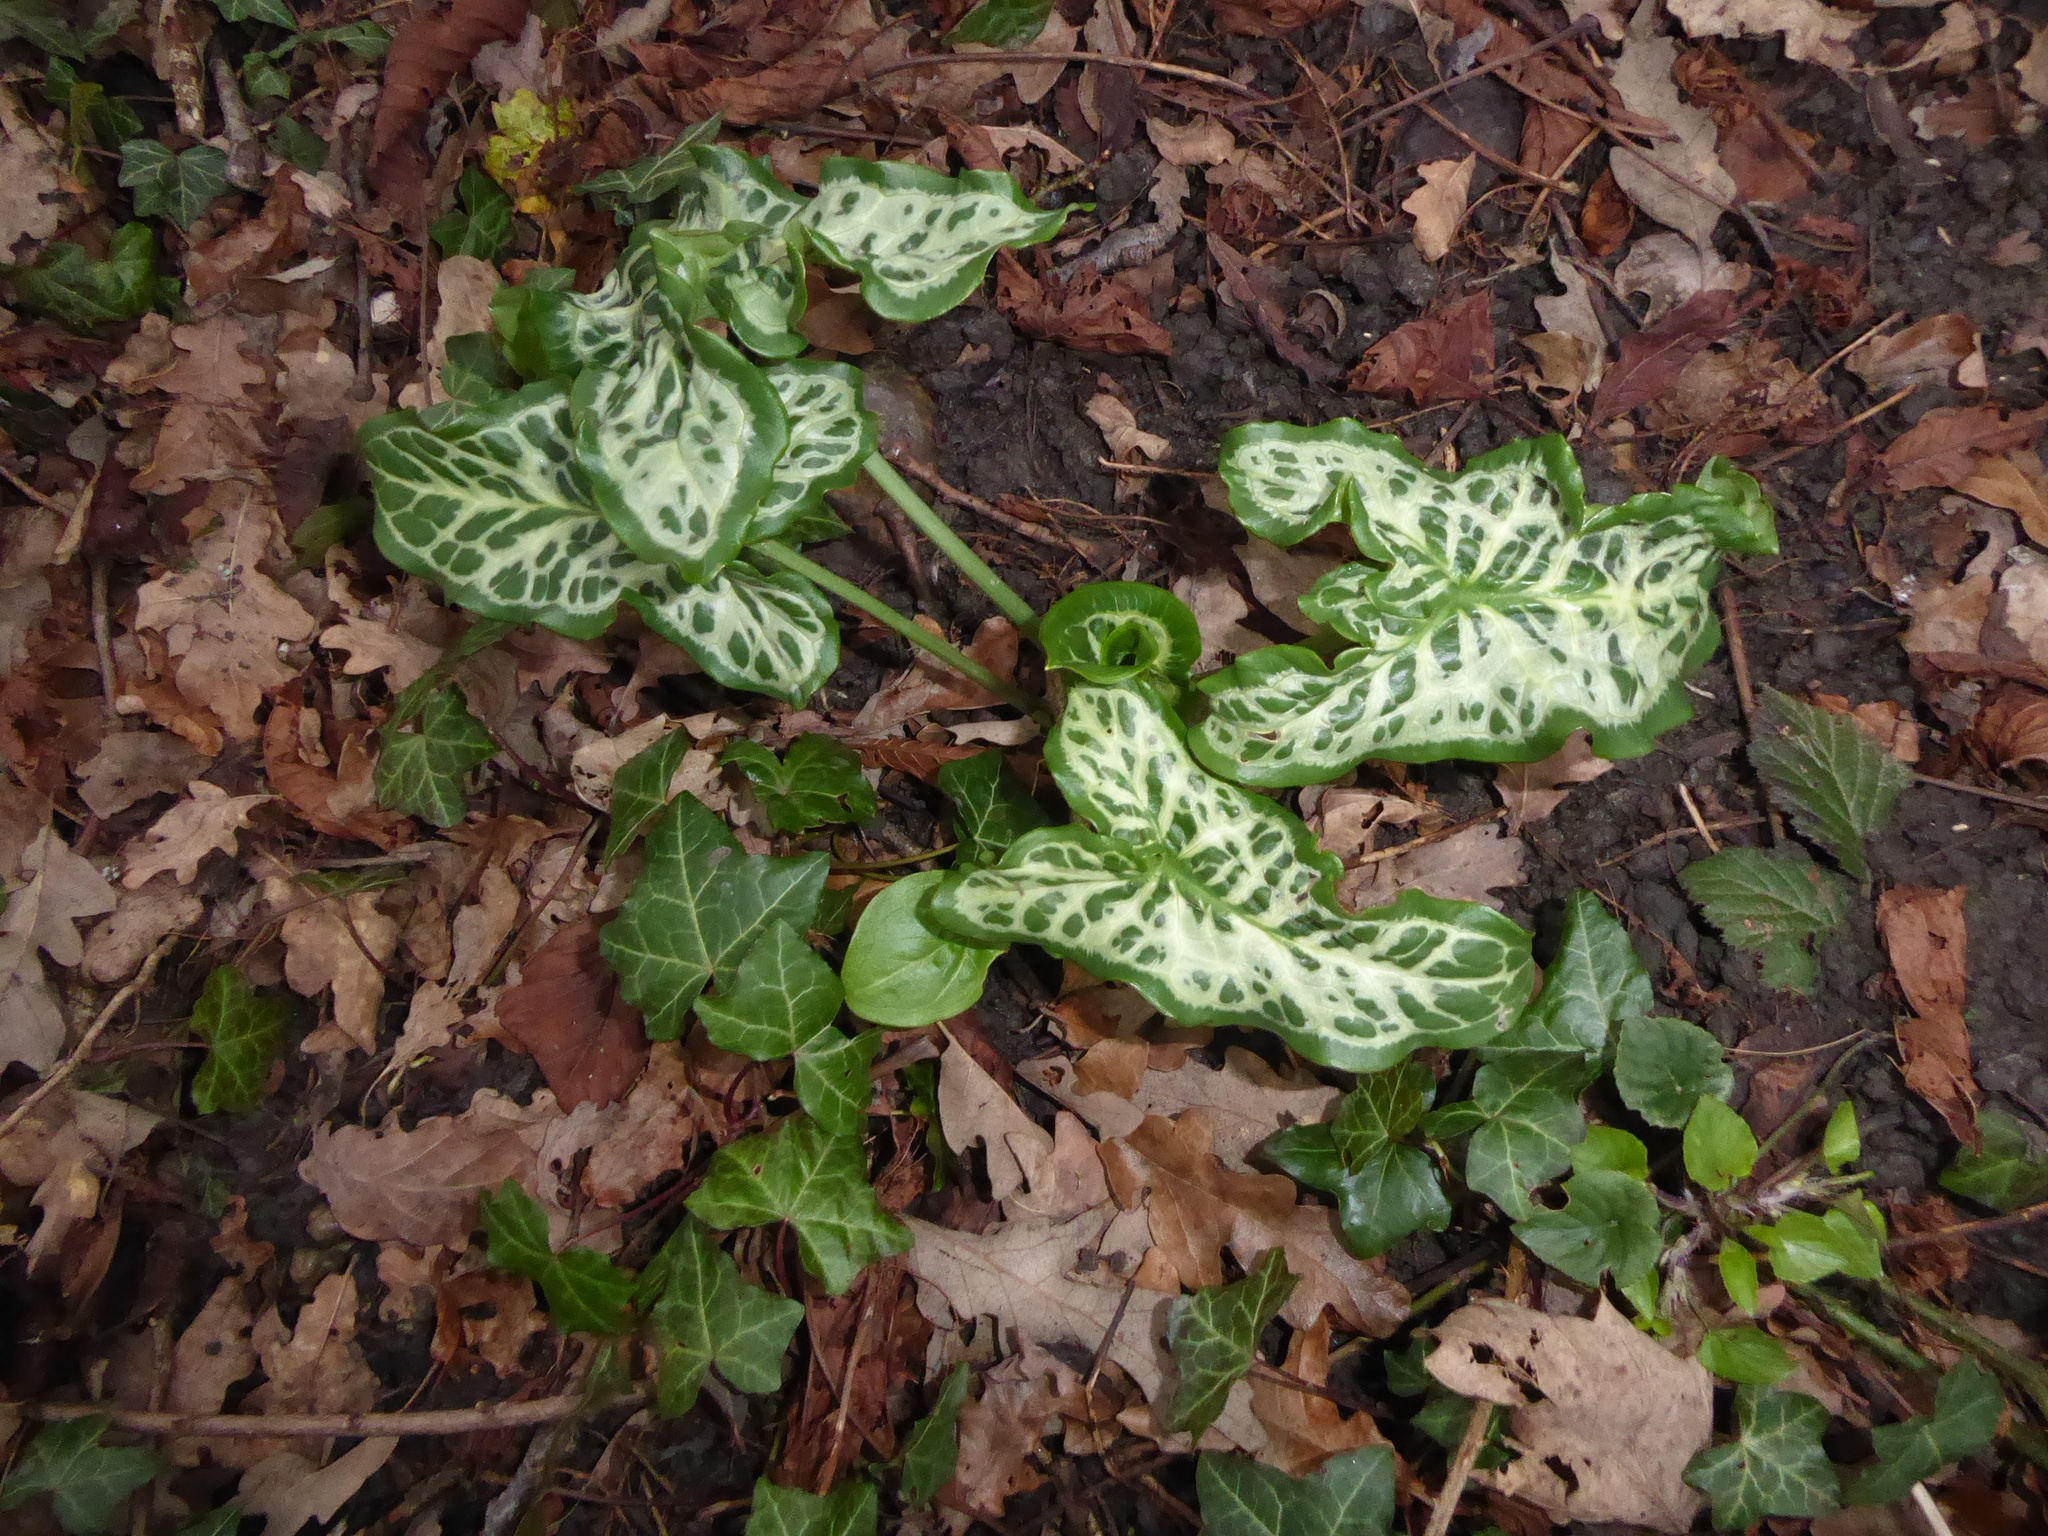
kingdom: Plantae
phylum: Tracheophyta
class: Liliopsida
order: Alismatales
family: Araceae
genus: Arum
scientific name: Arum italicum
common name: Italian lords-and-ladies
